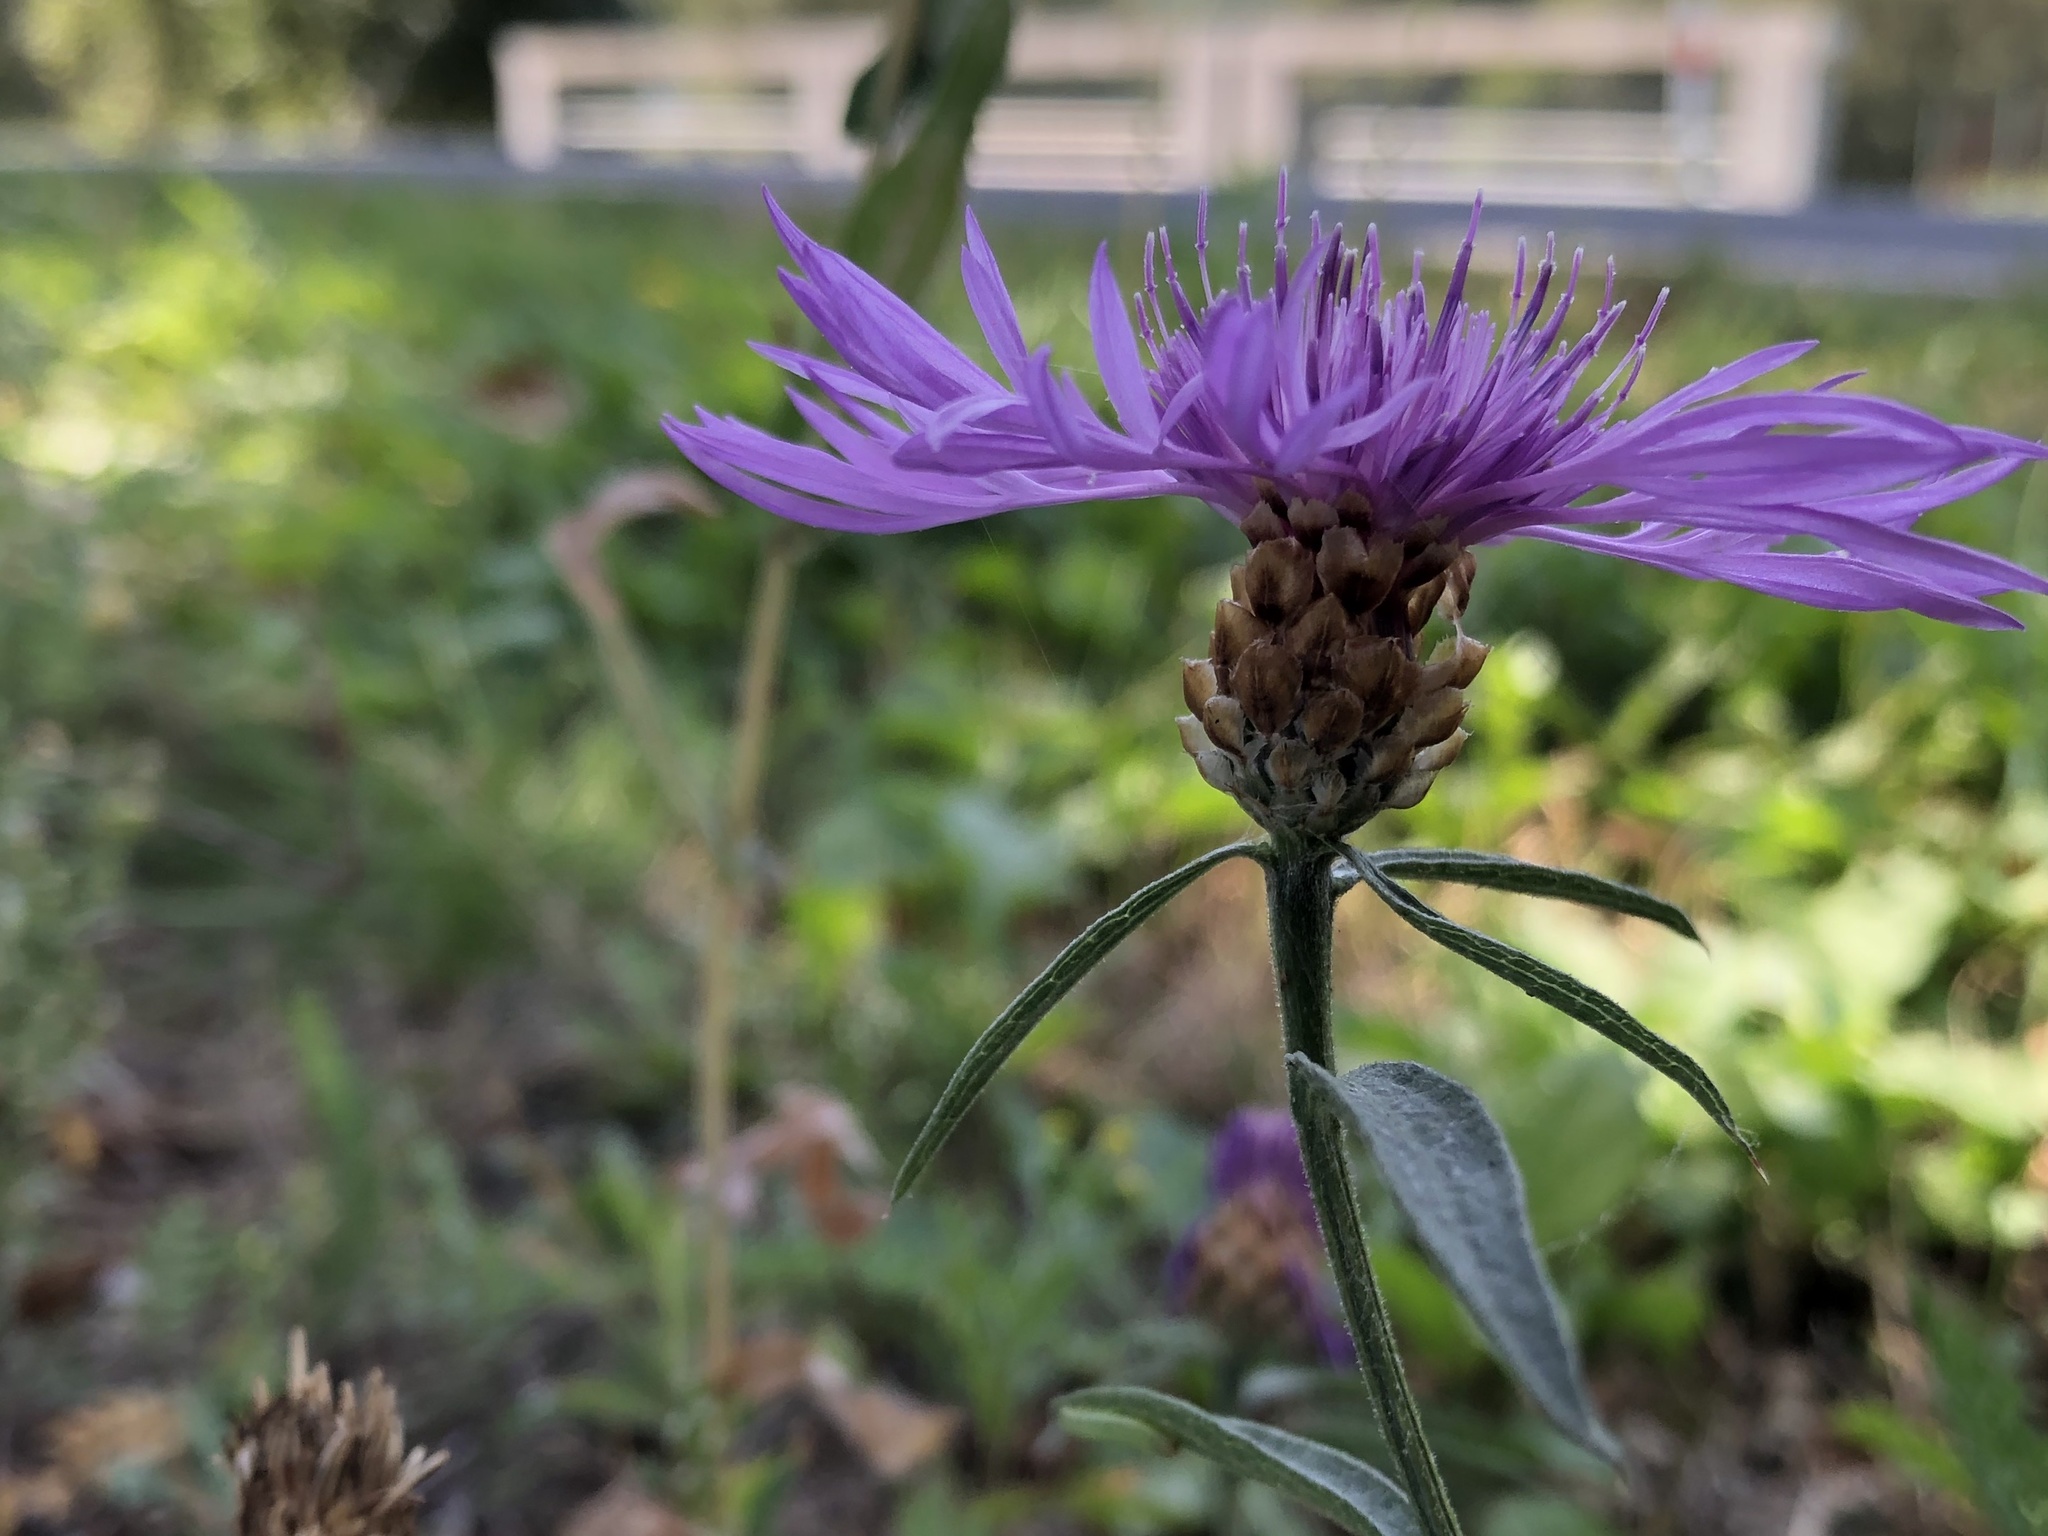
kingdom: Plantae
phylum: Tracheophyta
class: Magnoliopsida
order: Asterales
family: Asteraceae
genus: Centaurea
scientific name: Centaurea jacea
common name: Brown knapweed
